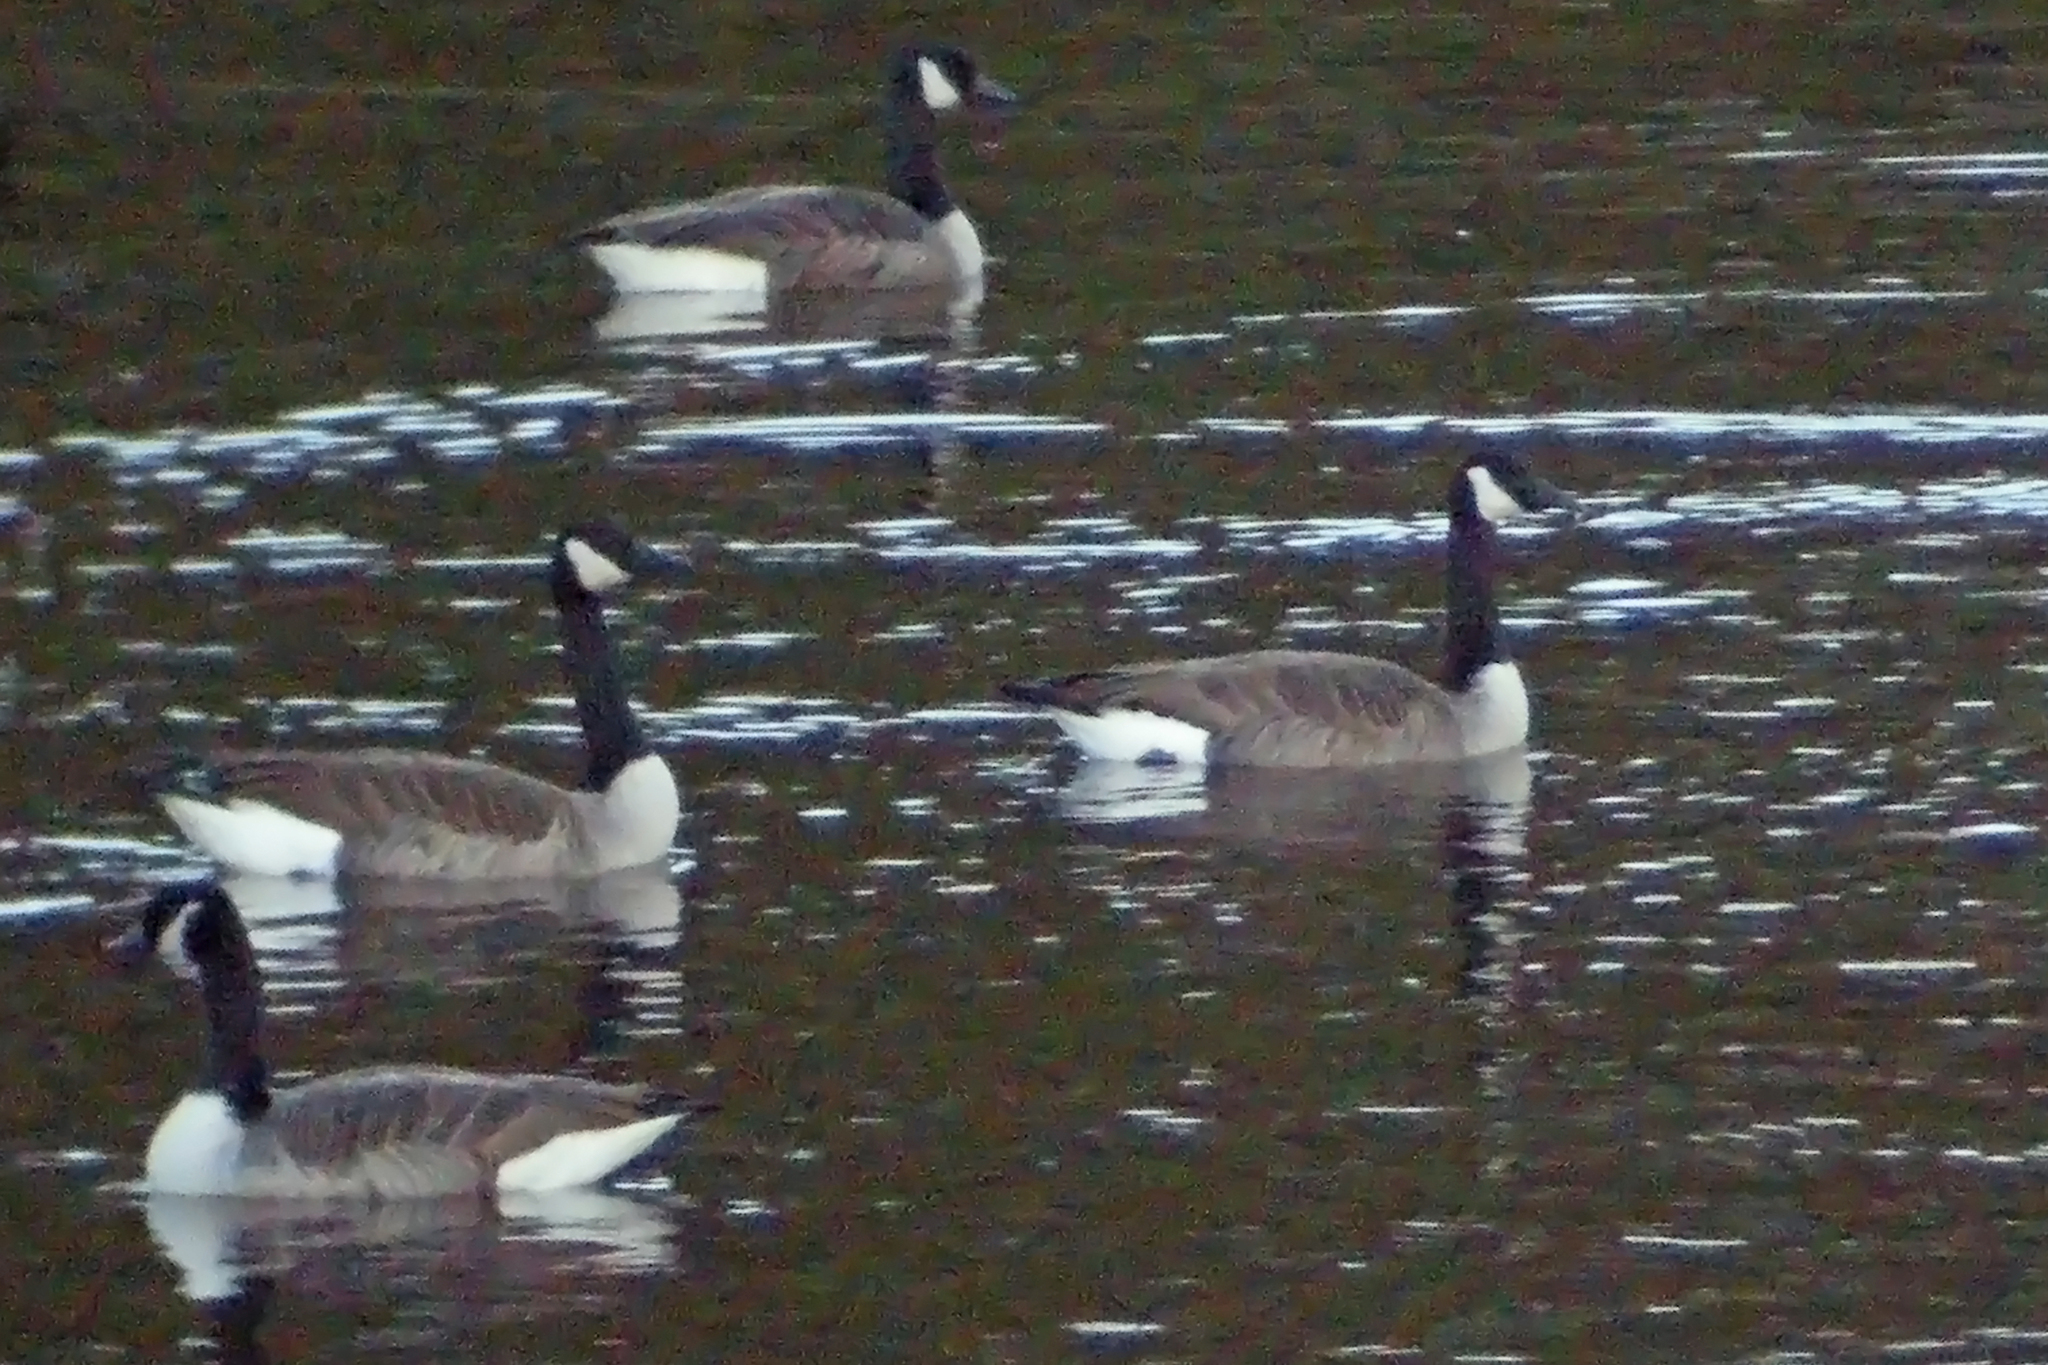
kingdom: Animalia
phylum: Chordata
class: Aves
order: Anseriformes
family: Anatidae
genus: Branta
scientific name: Branta canadensis
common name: Canada goose
